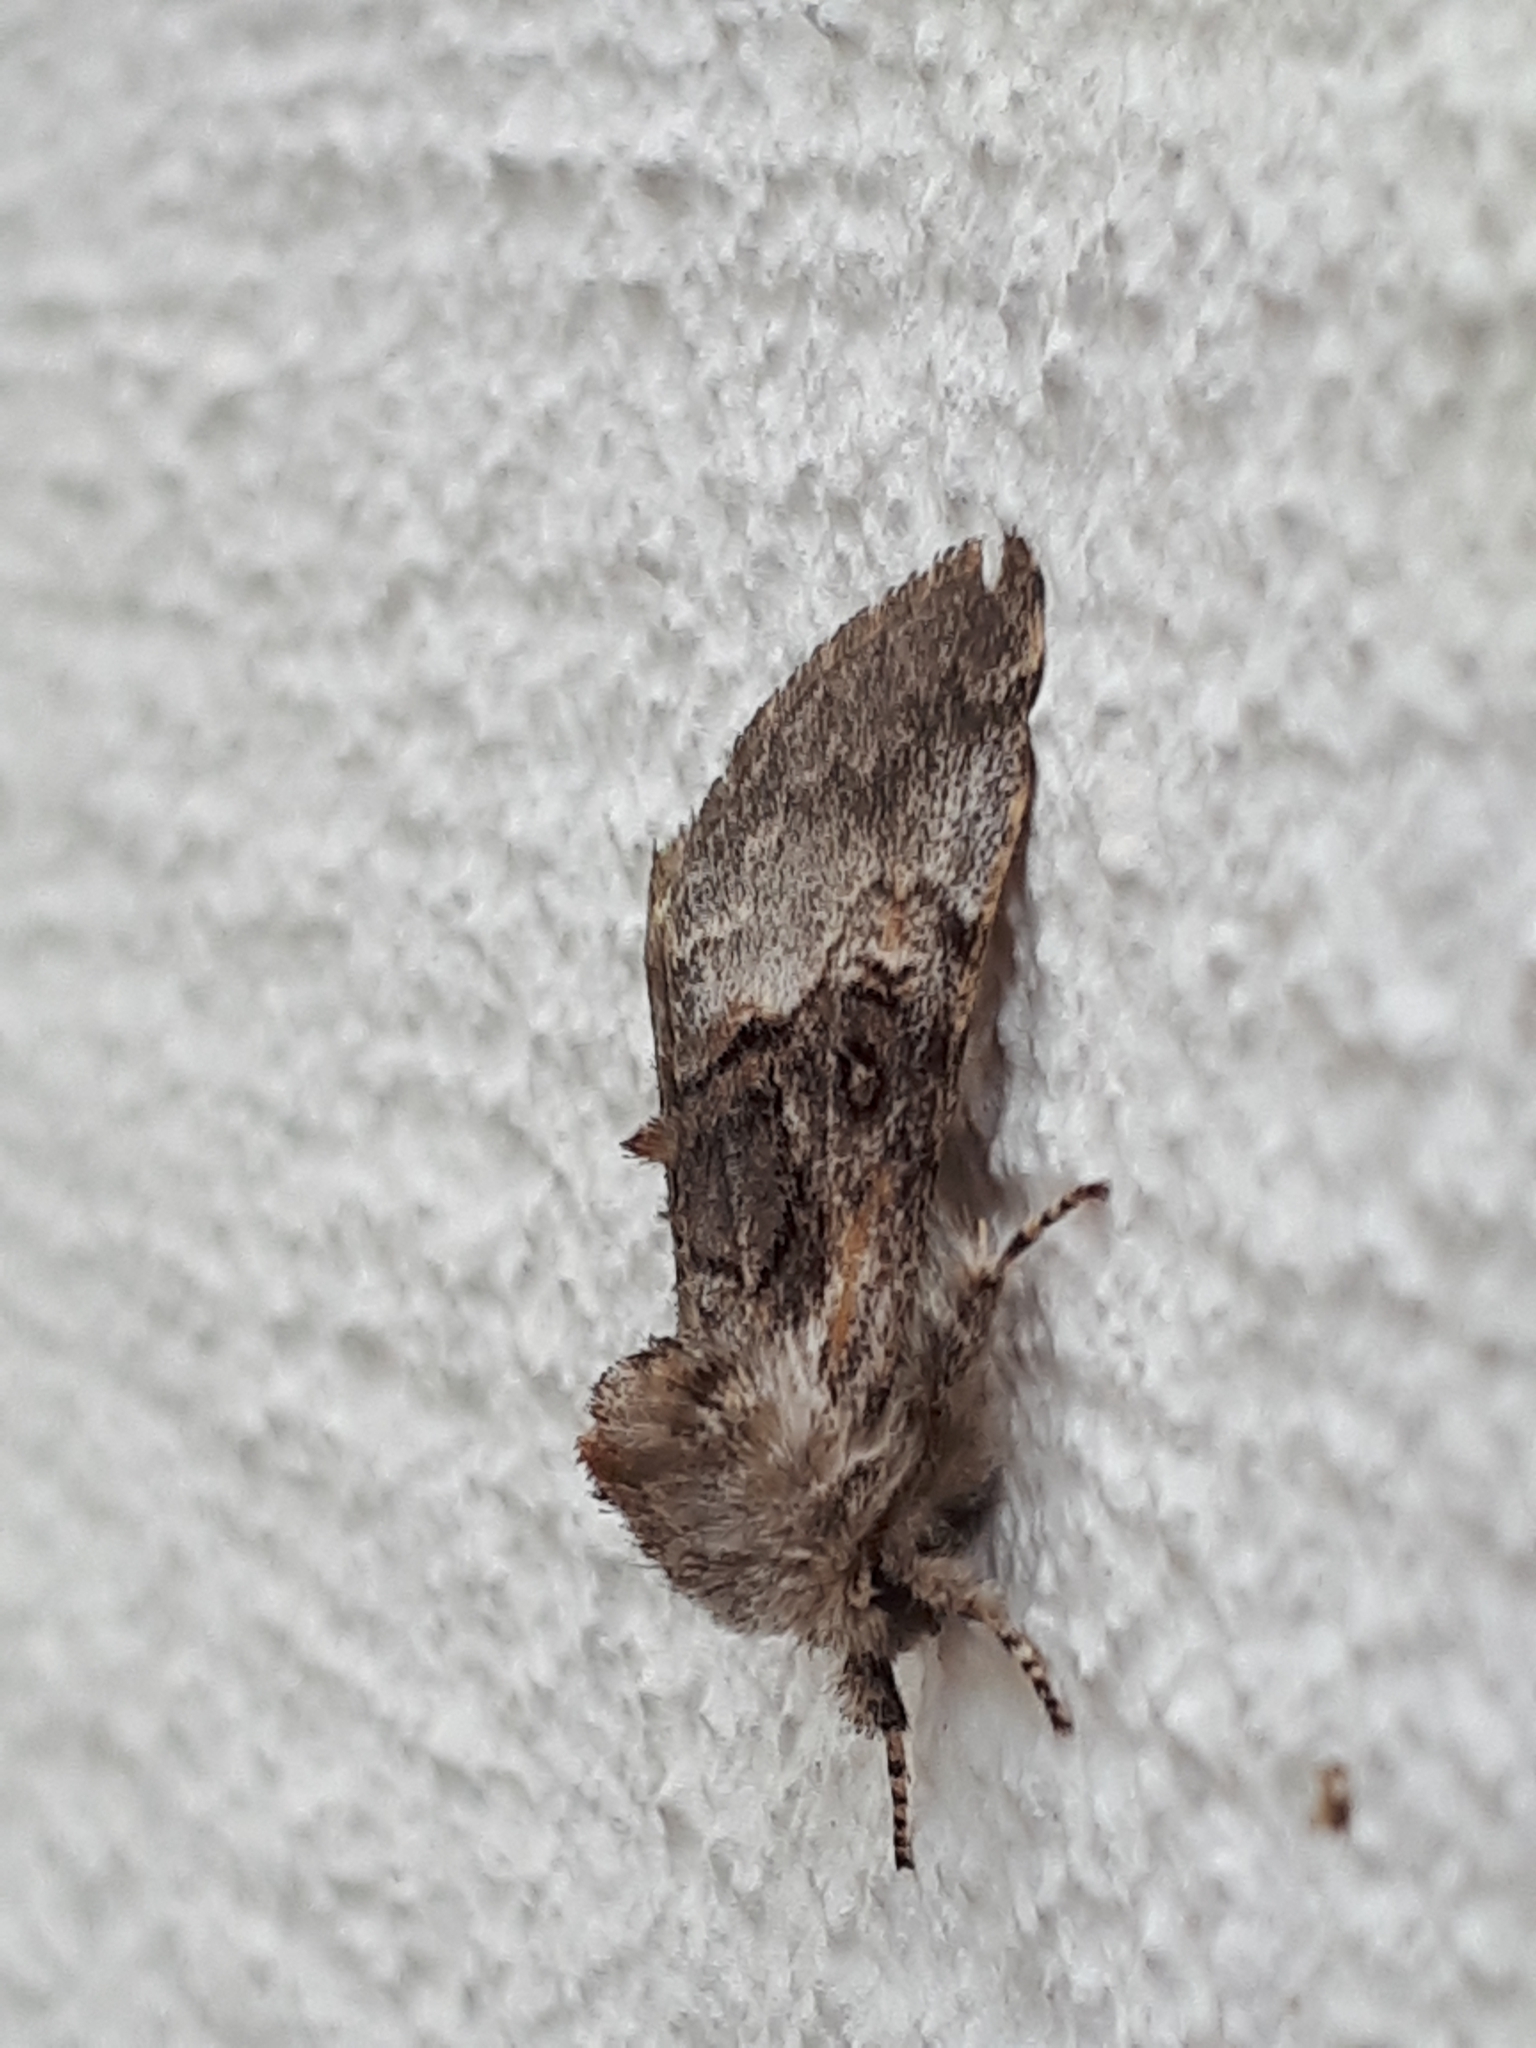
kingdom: Animalia
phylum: Arthropoda
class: Insecta
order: Lepidoptera
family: Noctuidae
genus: Colocasia
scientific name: Colocasia coryli
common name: Nut-tree tussock
